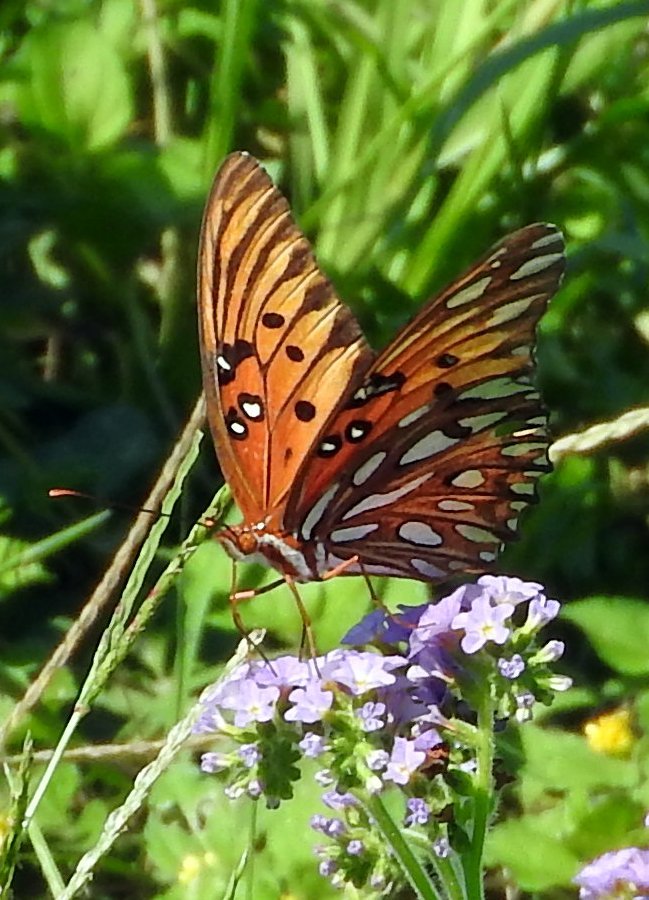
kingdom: Animalia
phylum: Arthropoda
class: Insecta
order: Lepidoptera
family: Nymphalidae
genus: Dione
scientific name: Dione vanillae
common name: Gulf fritillary
